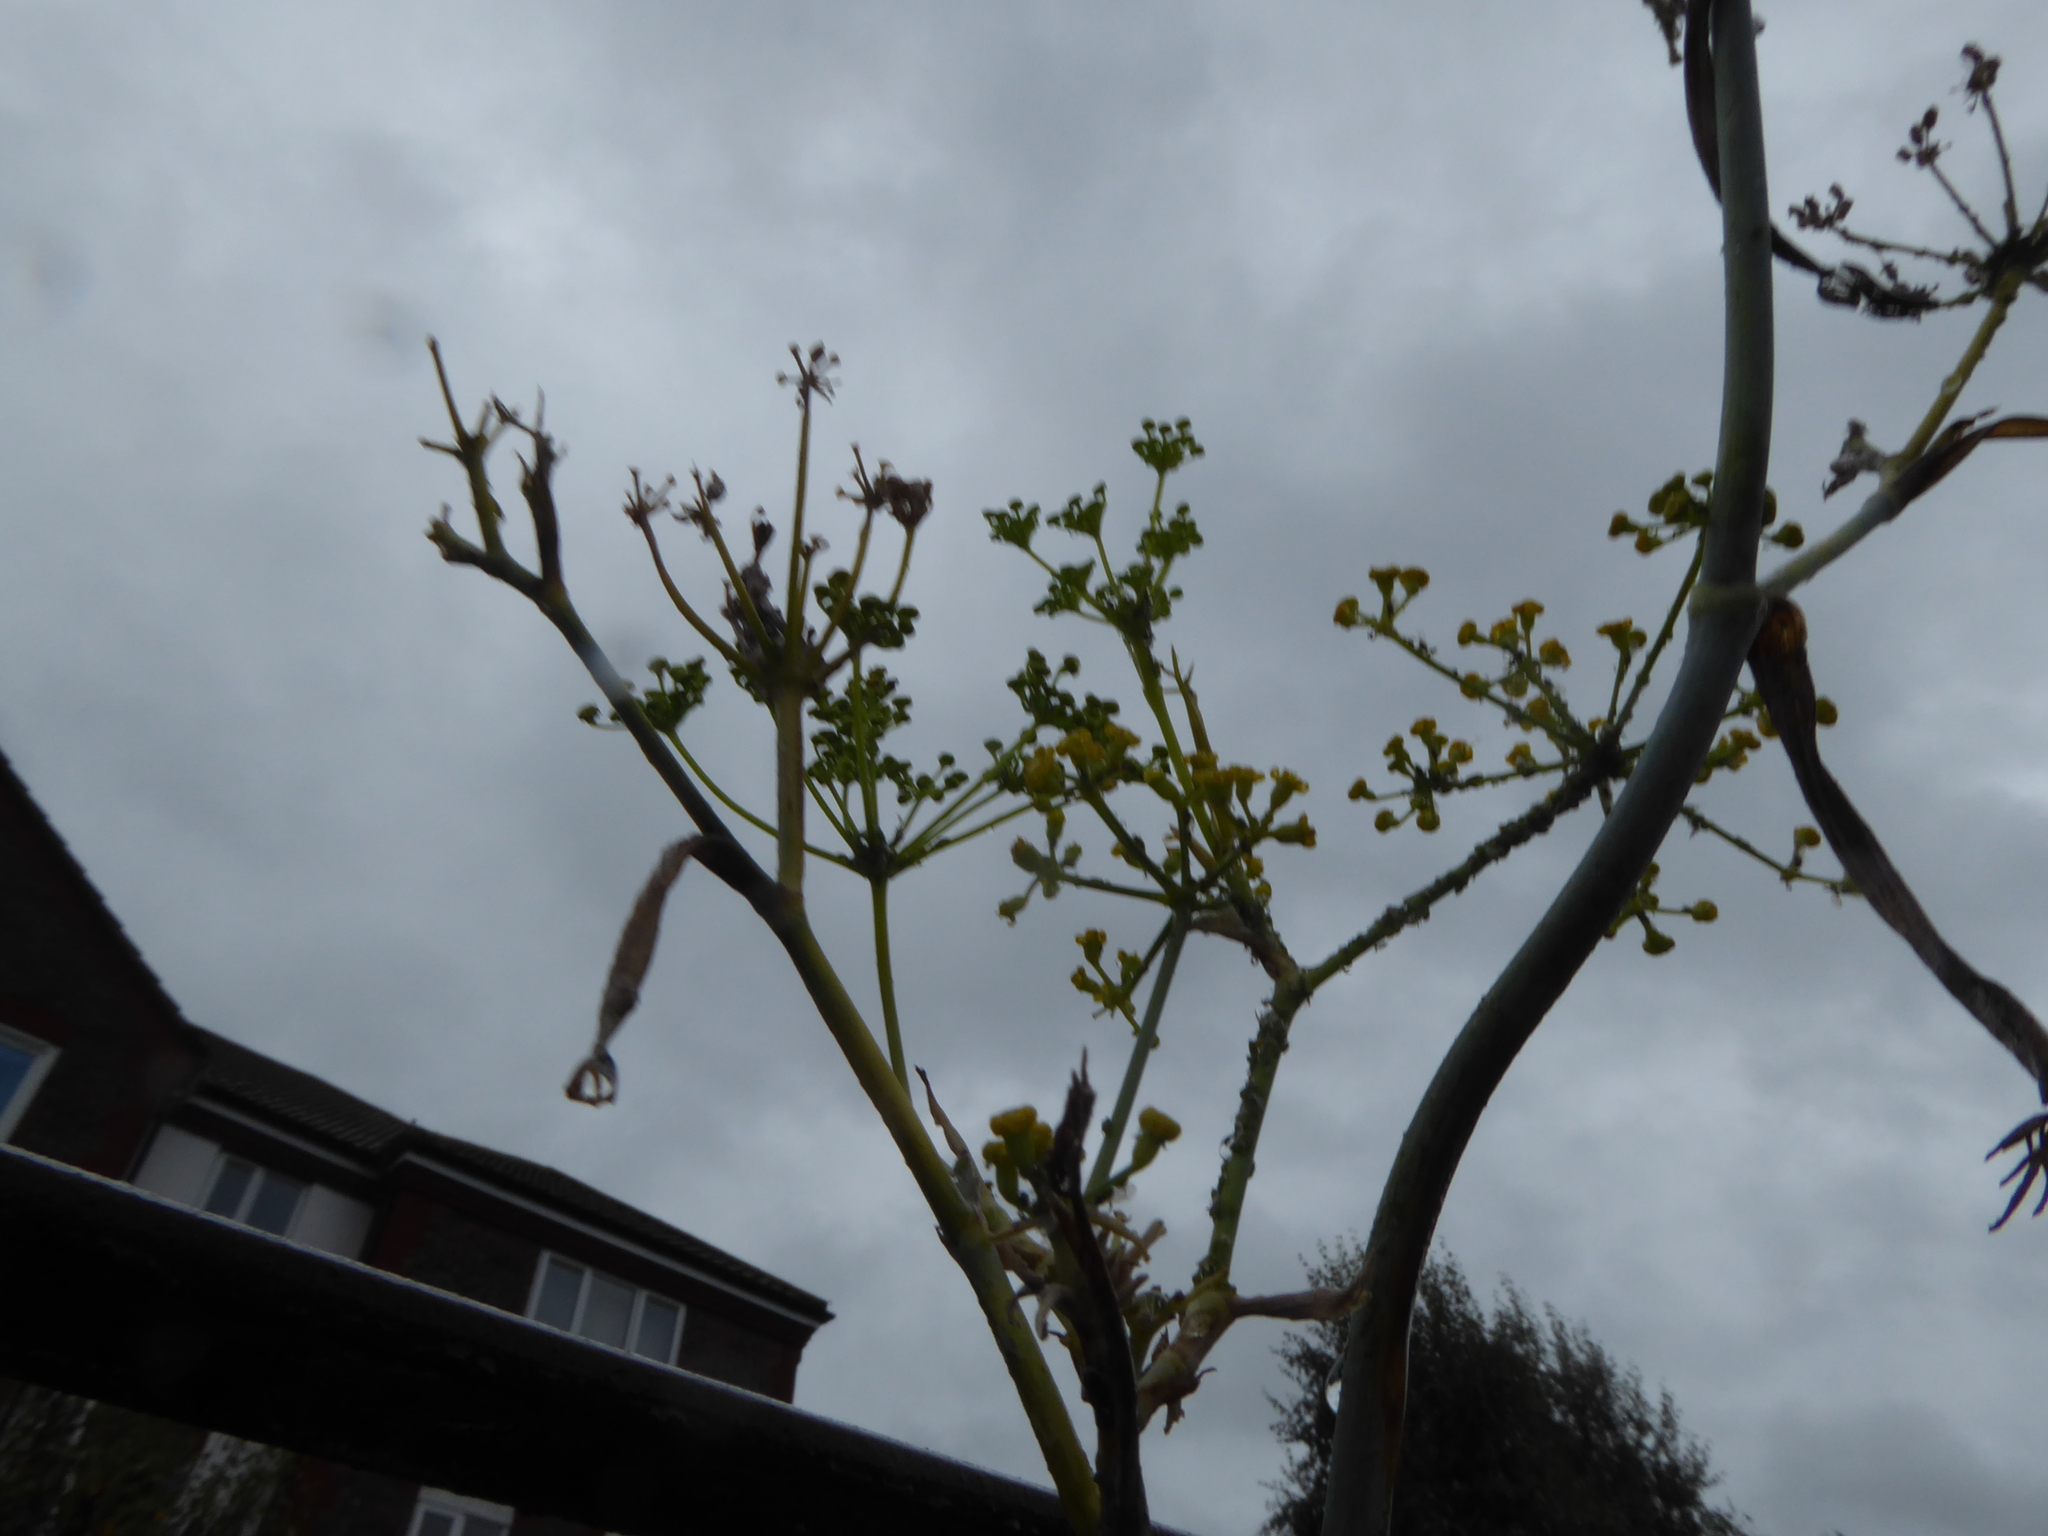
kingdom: Plantae
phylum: Tracheophyta
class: Magnoliopsida
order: Apiales
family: Apiaceae
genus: Foeniculum
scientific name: Foeniculum vulgare
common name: Fennel
